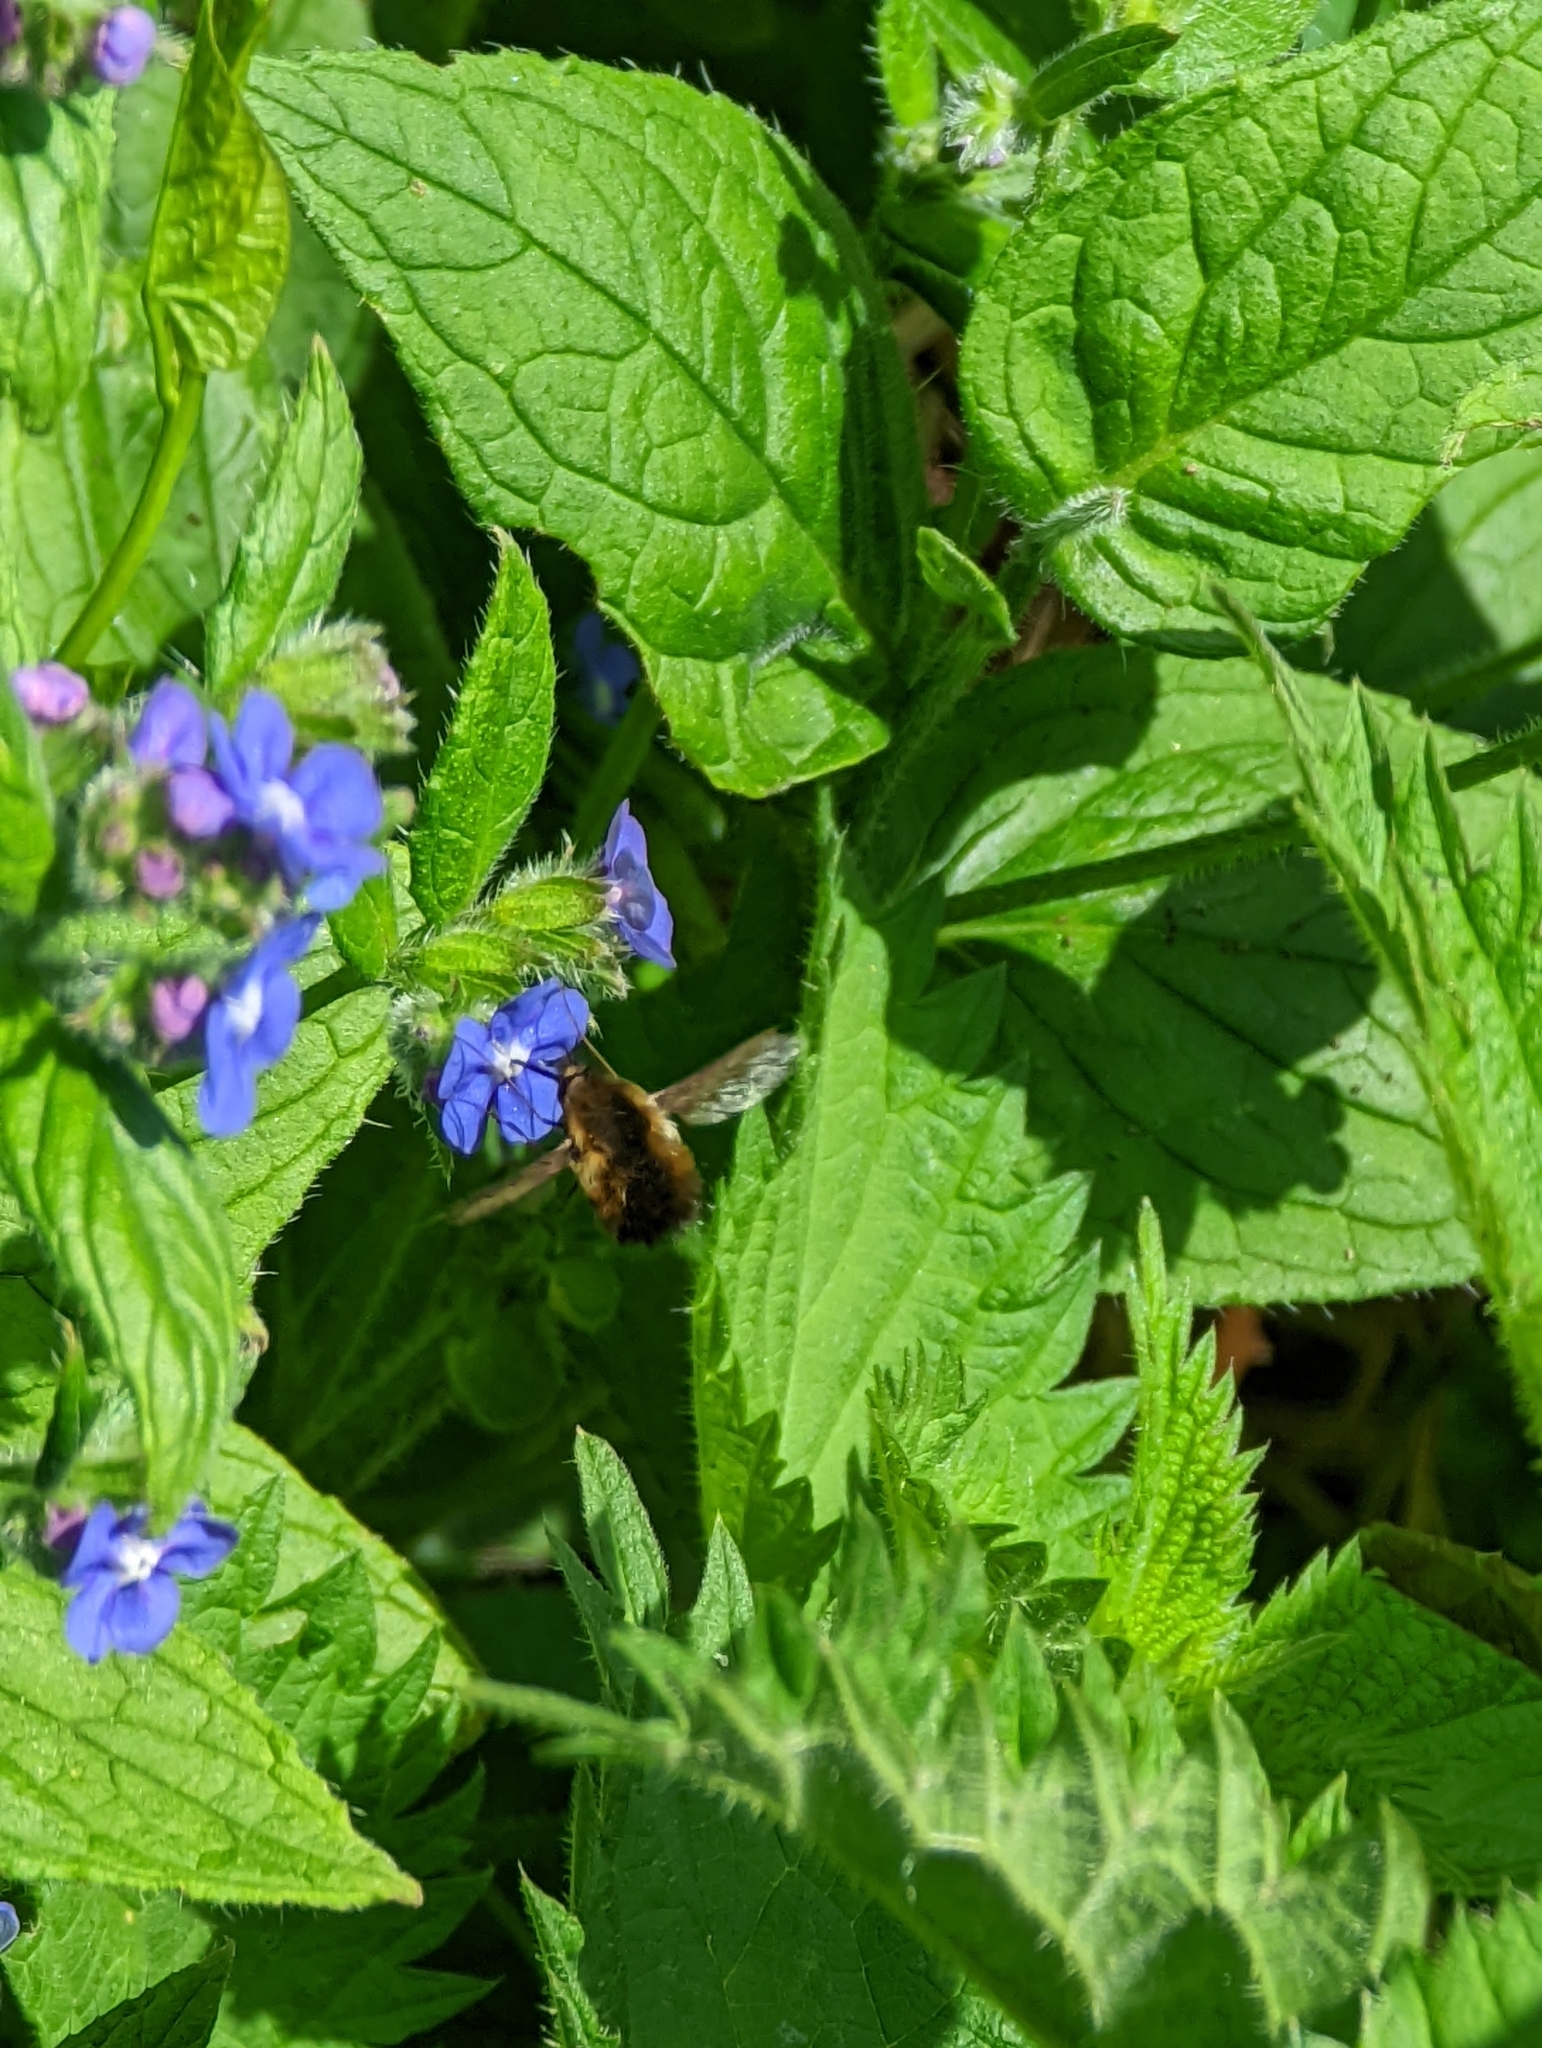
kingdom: Animalia
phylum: Arthropoda
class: Insecta
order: Diptera
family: Bombyliidae
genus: Bombylius
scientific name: Bombylius discolor
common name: Dotted bee-fly
